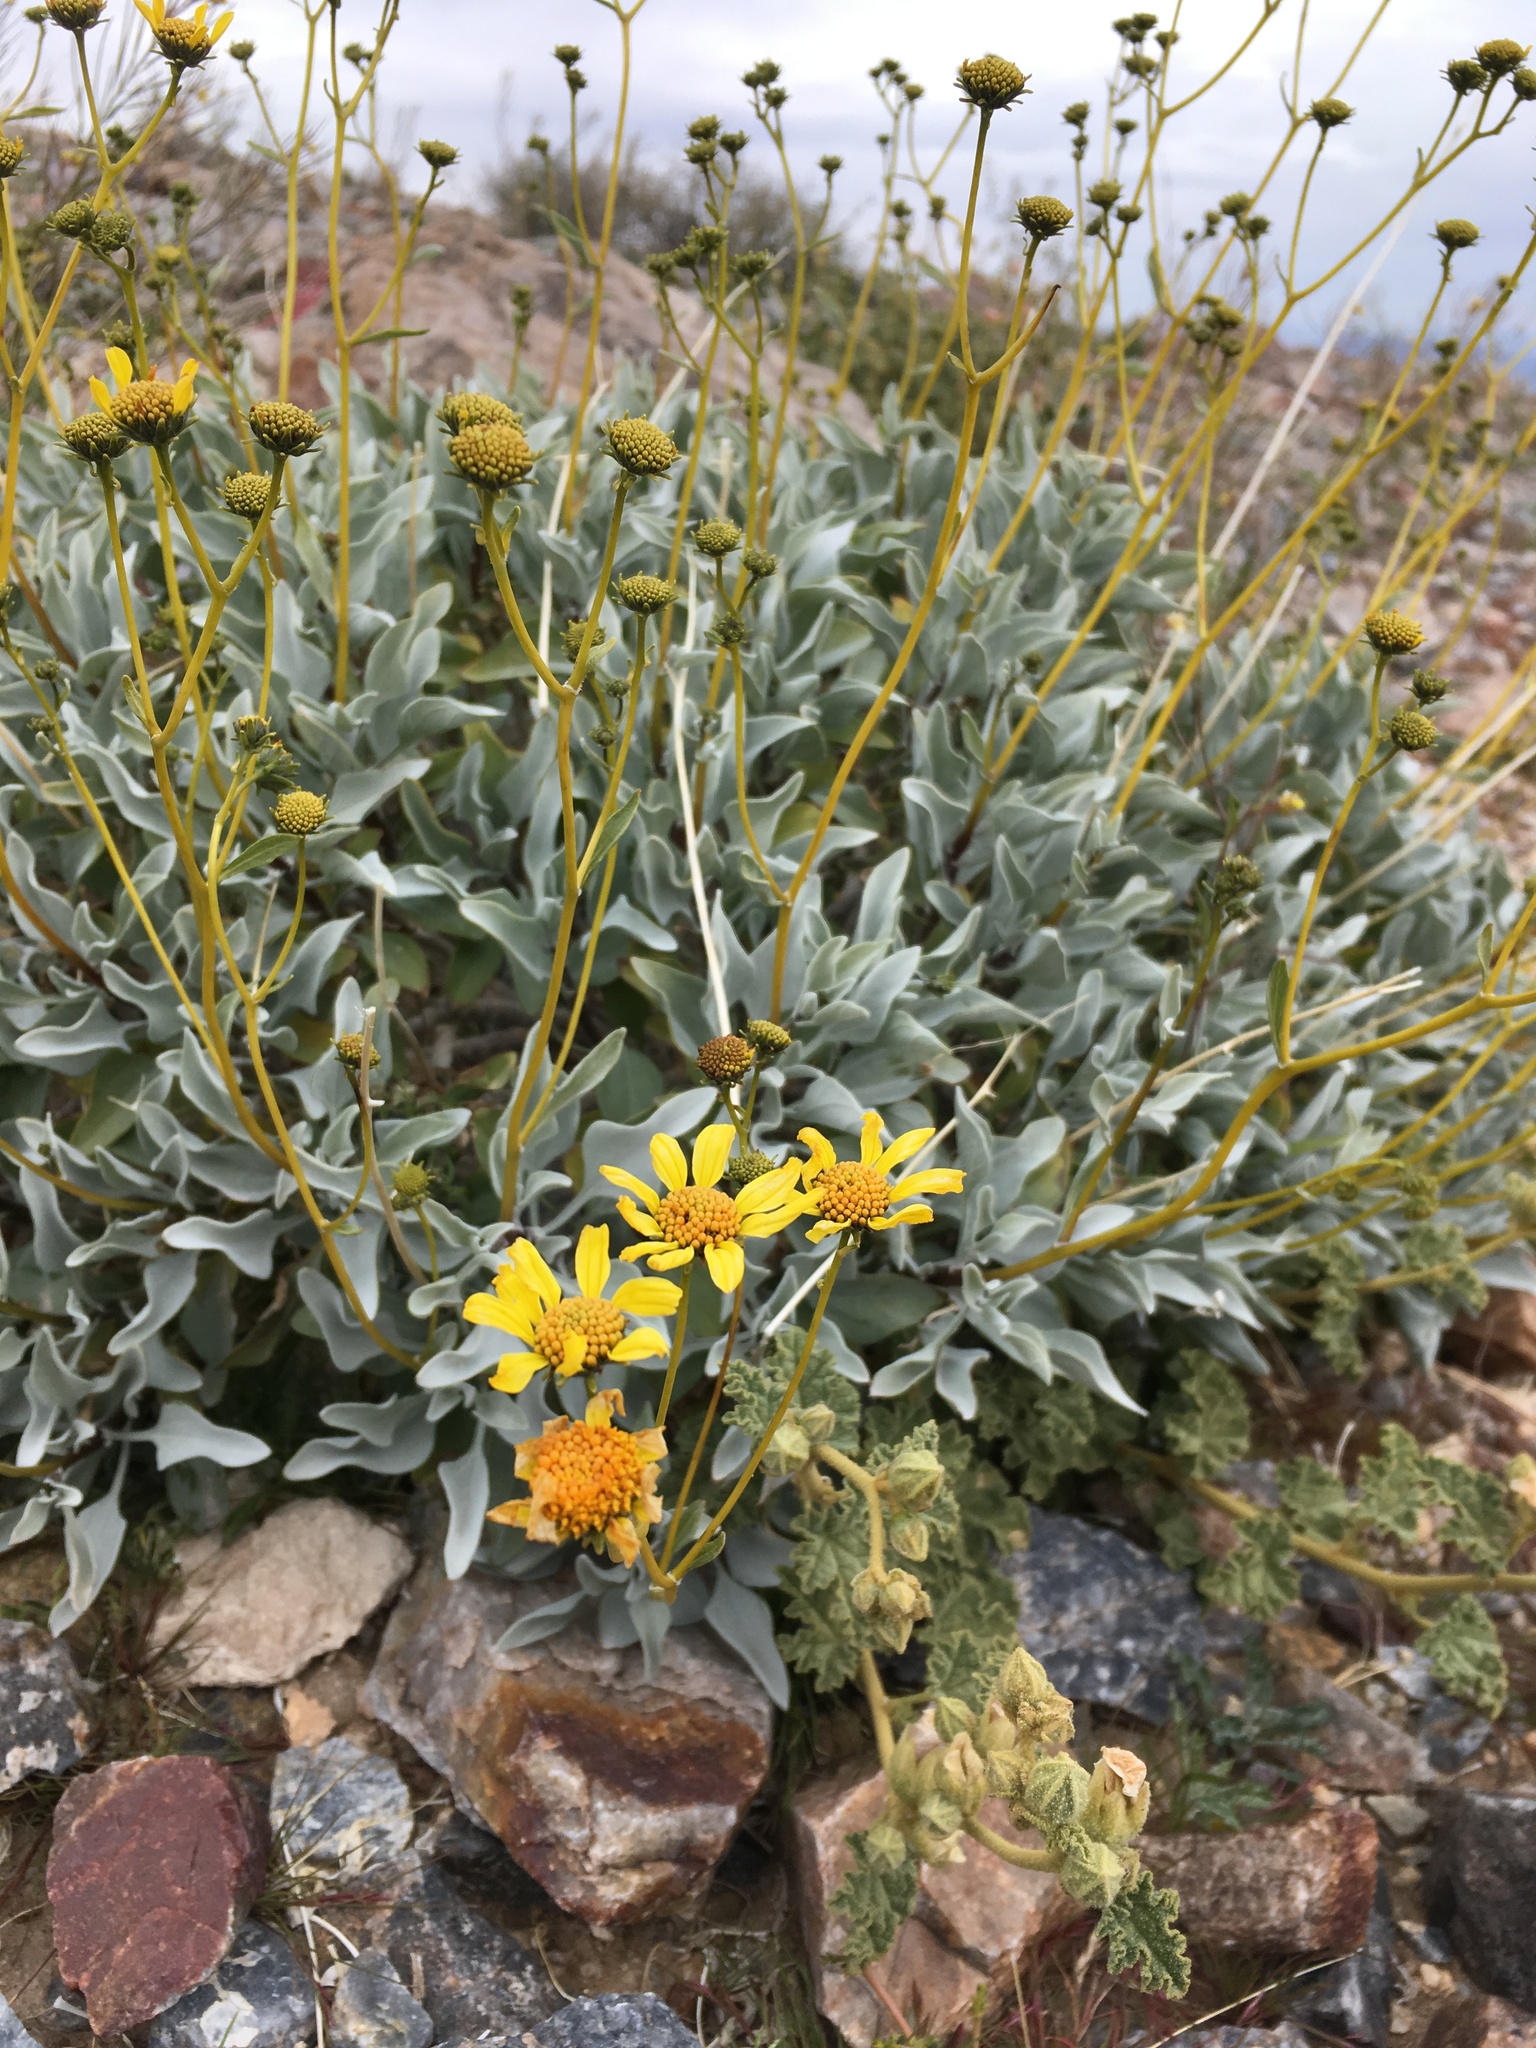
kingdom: Plantae
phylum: Tracheophyta
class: Magnoliopsida
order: Asterales
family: Asteraceae
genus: Encelia
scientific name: Encelia farinosa
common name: Brittlebush
